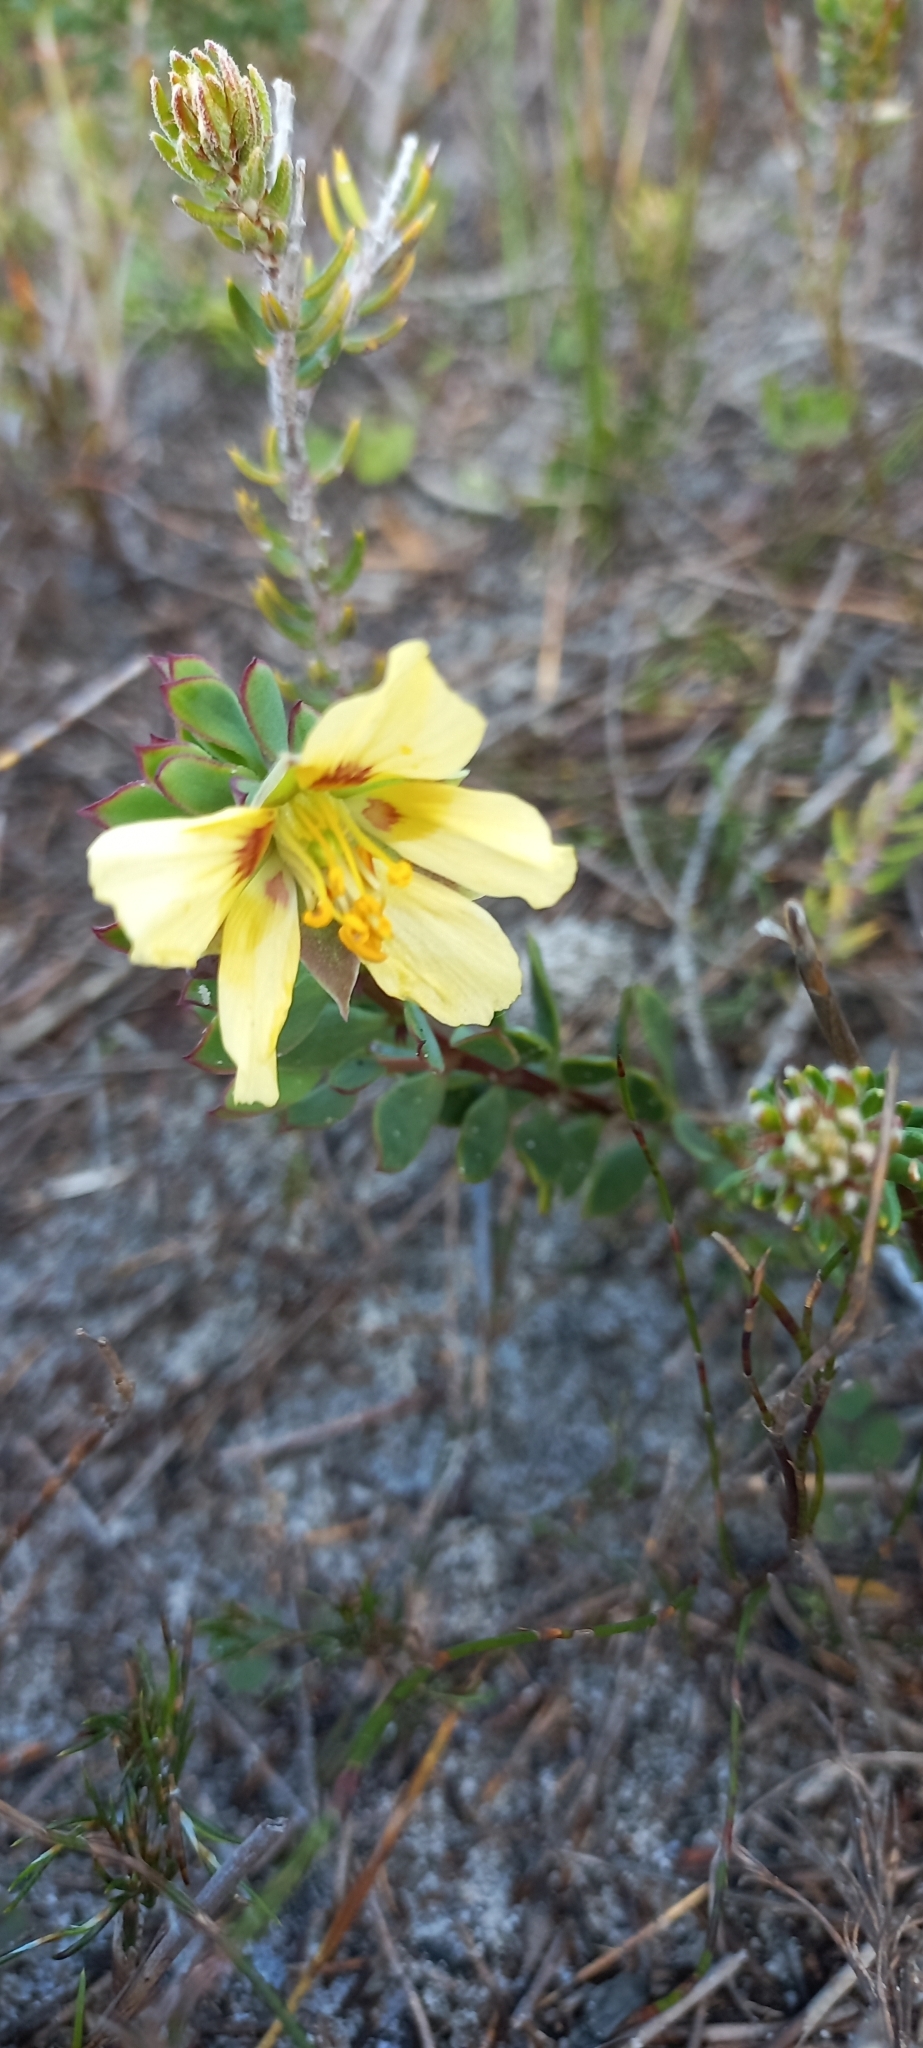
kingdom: Plantae
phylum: Tracheophyta
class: Magnoliopsida
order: Zygophyllales
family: Zygophyllaceae
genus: Roepera
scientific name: Roepera flexuosa
